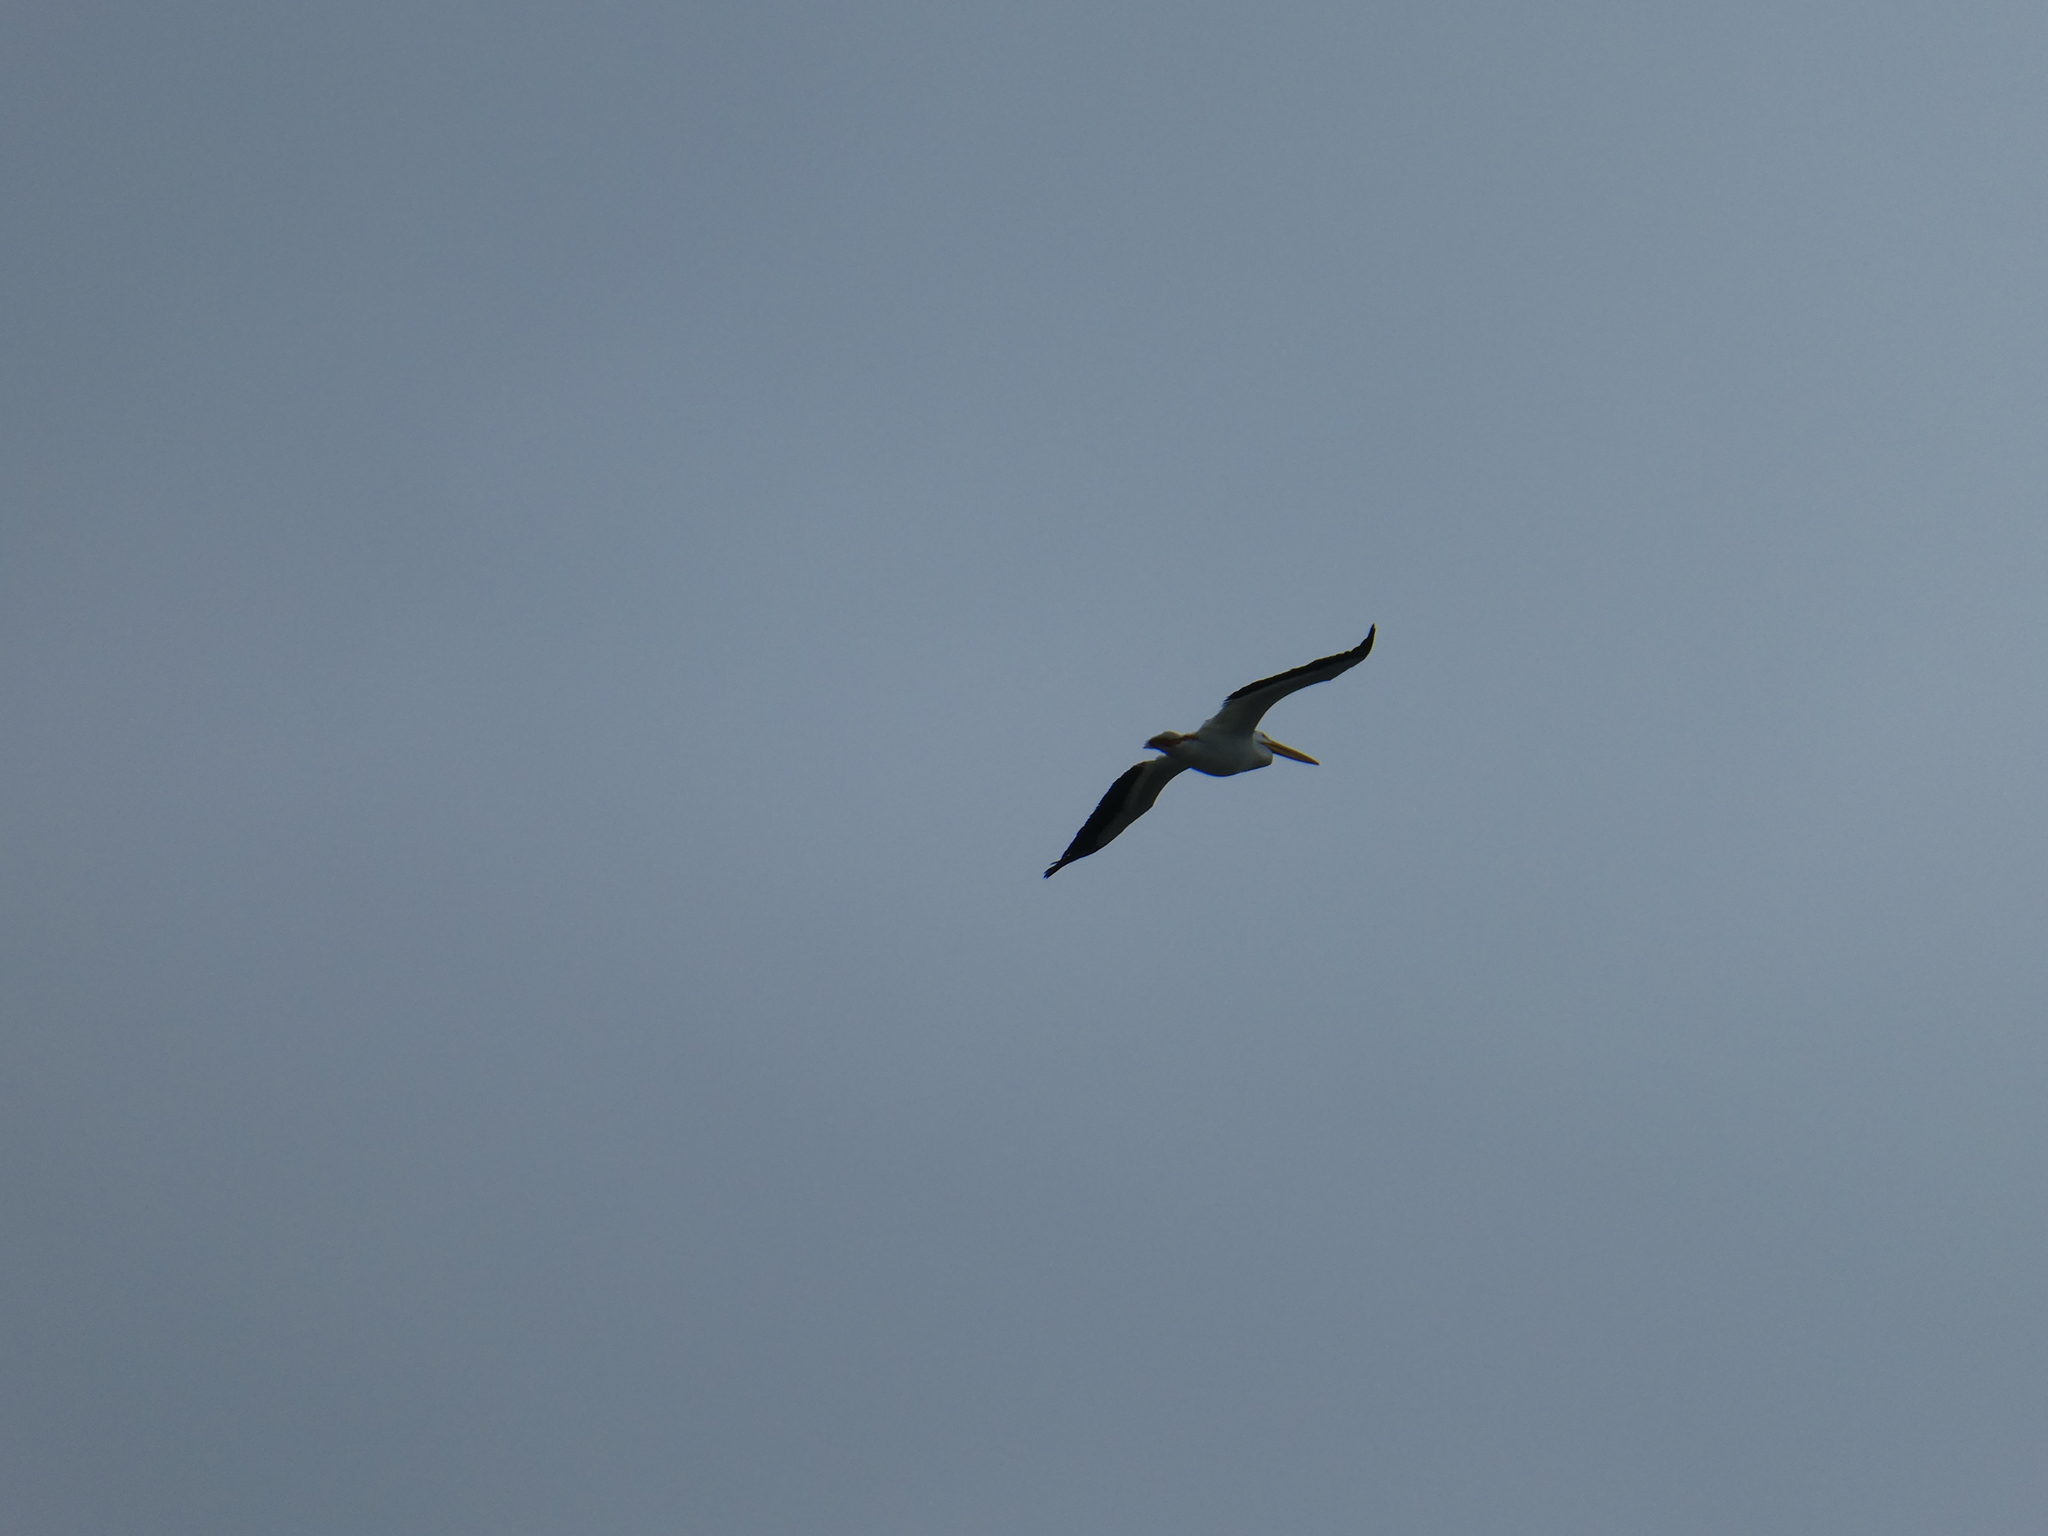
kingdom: Animalia
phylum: Chordata
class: Aves
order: Pelecaniformes
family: Pelecanidae
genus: Pelecanus
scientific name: Pelecanus erythrorhynchos
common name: American white pelican
